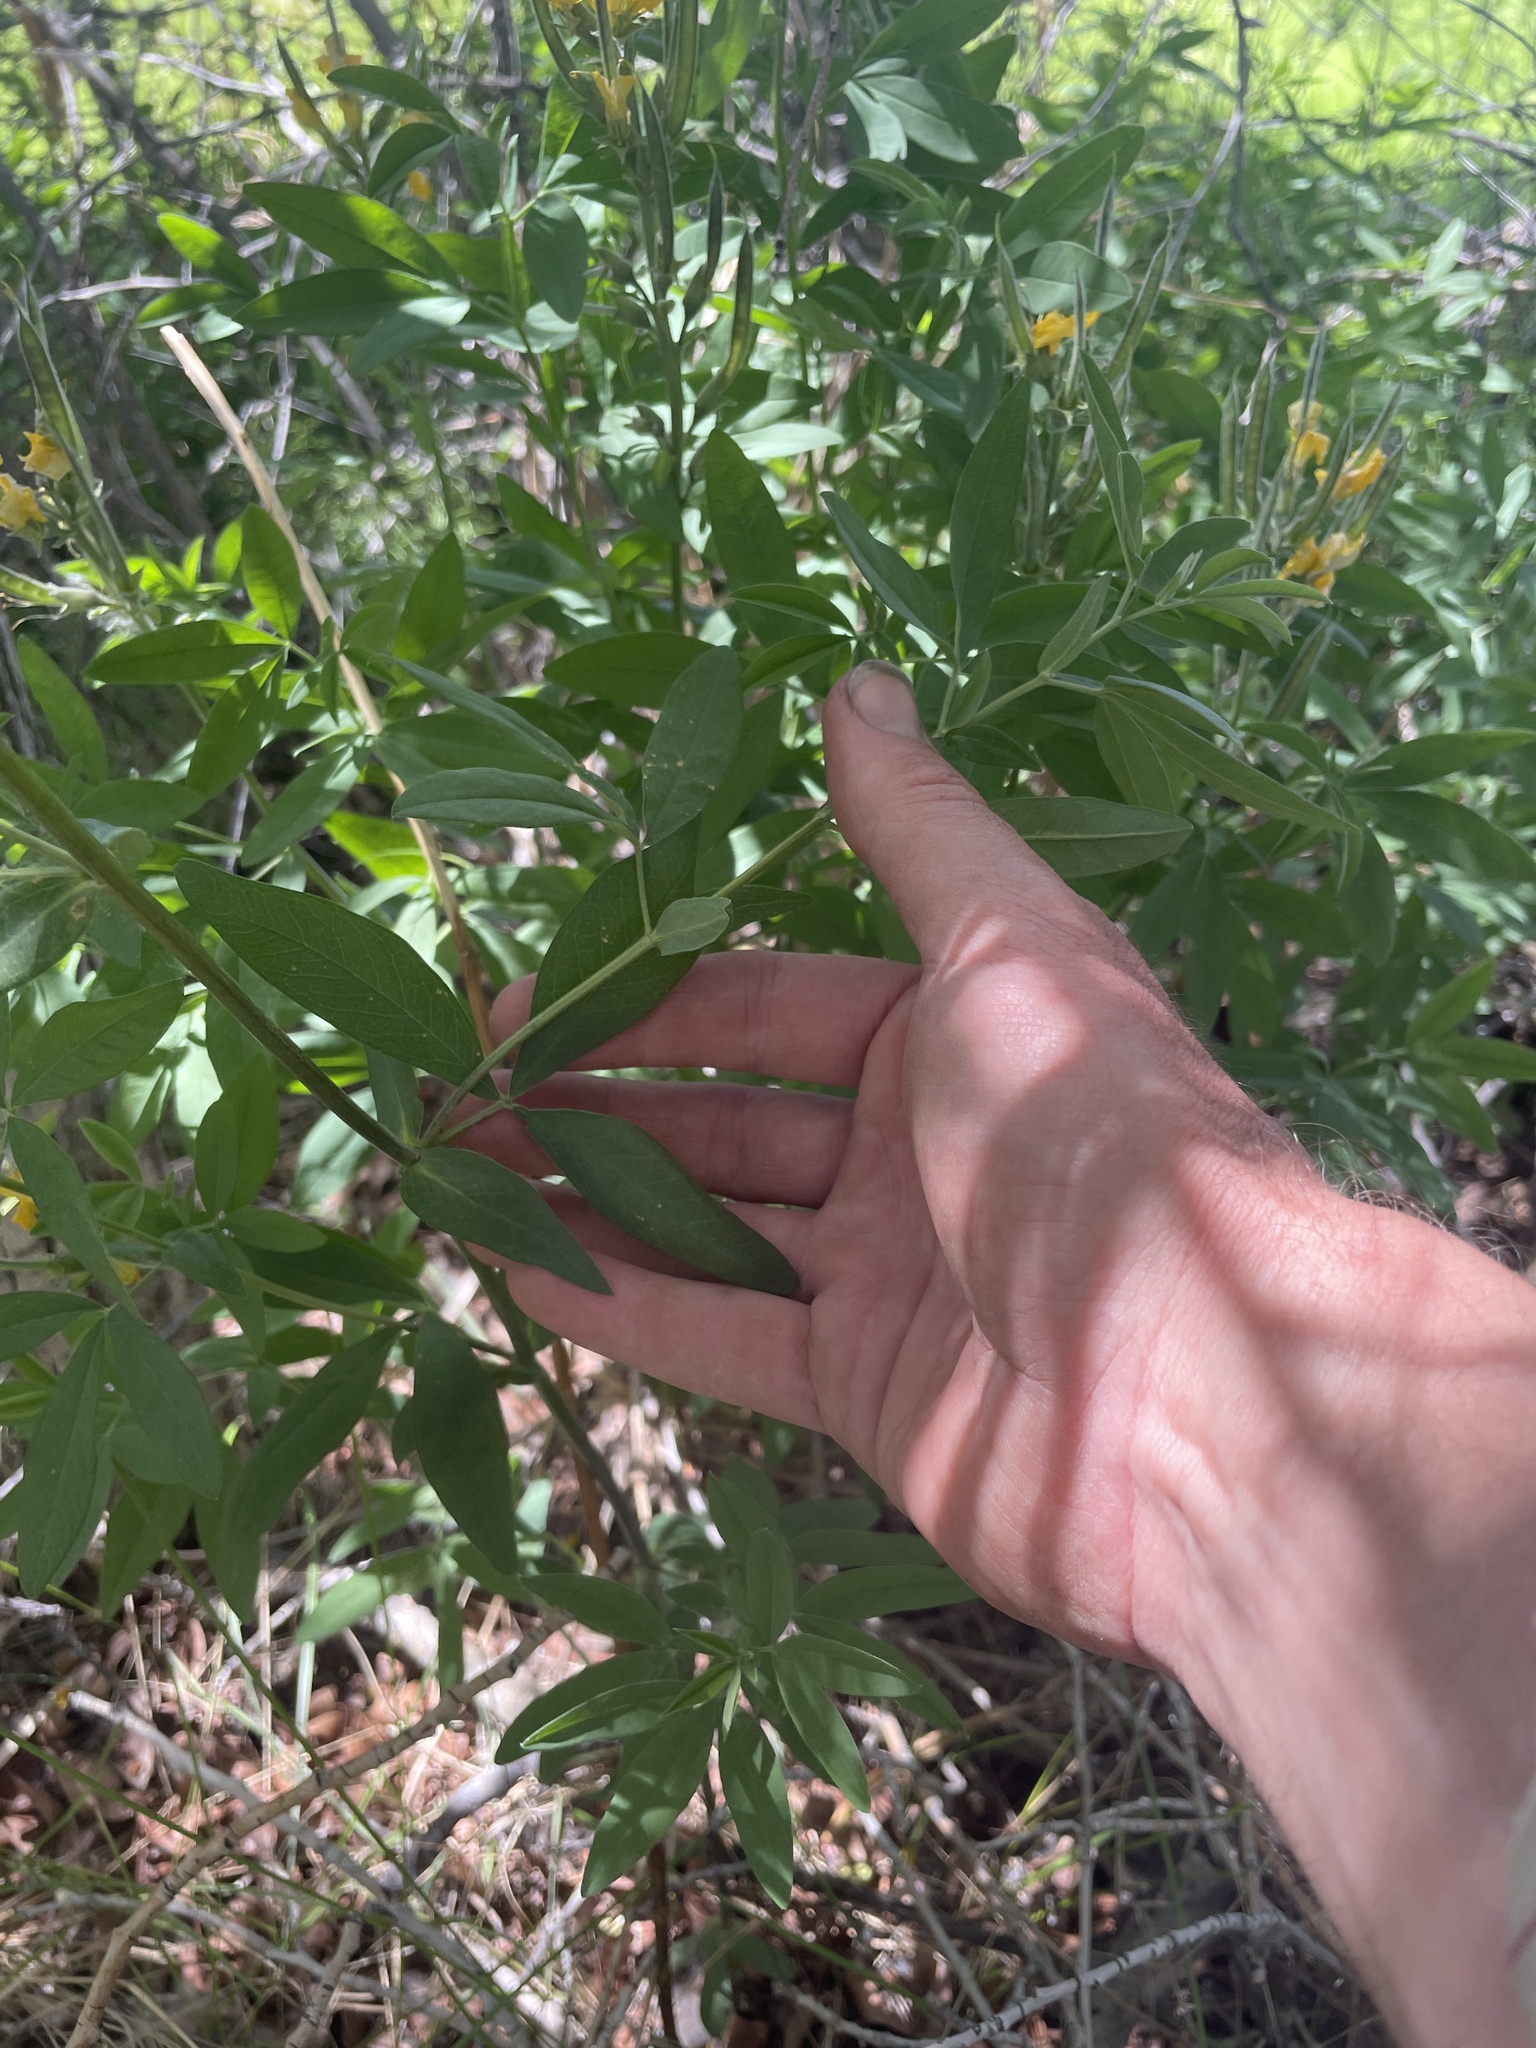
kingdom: Plantae
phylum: Tracheophyta
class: Magnoliopsida
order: Fabales
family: Fabaceae
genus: Thermopsis
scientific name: Thermopsis montana
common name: False lupin
